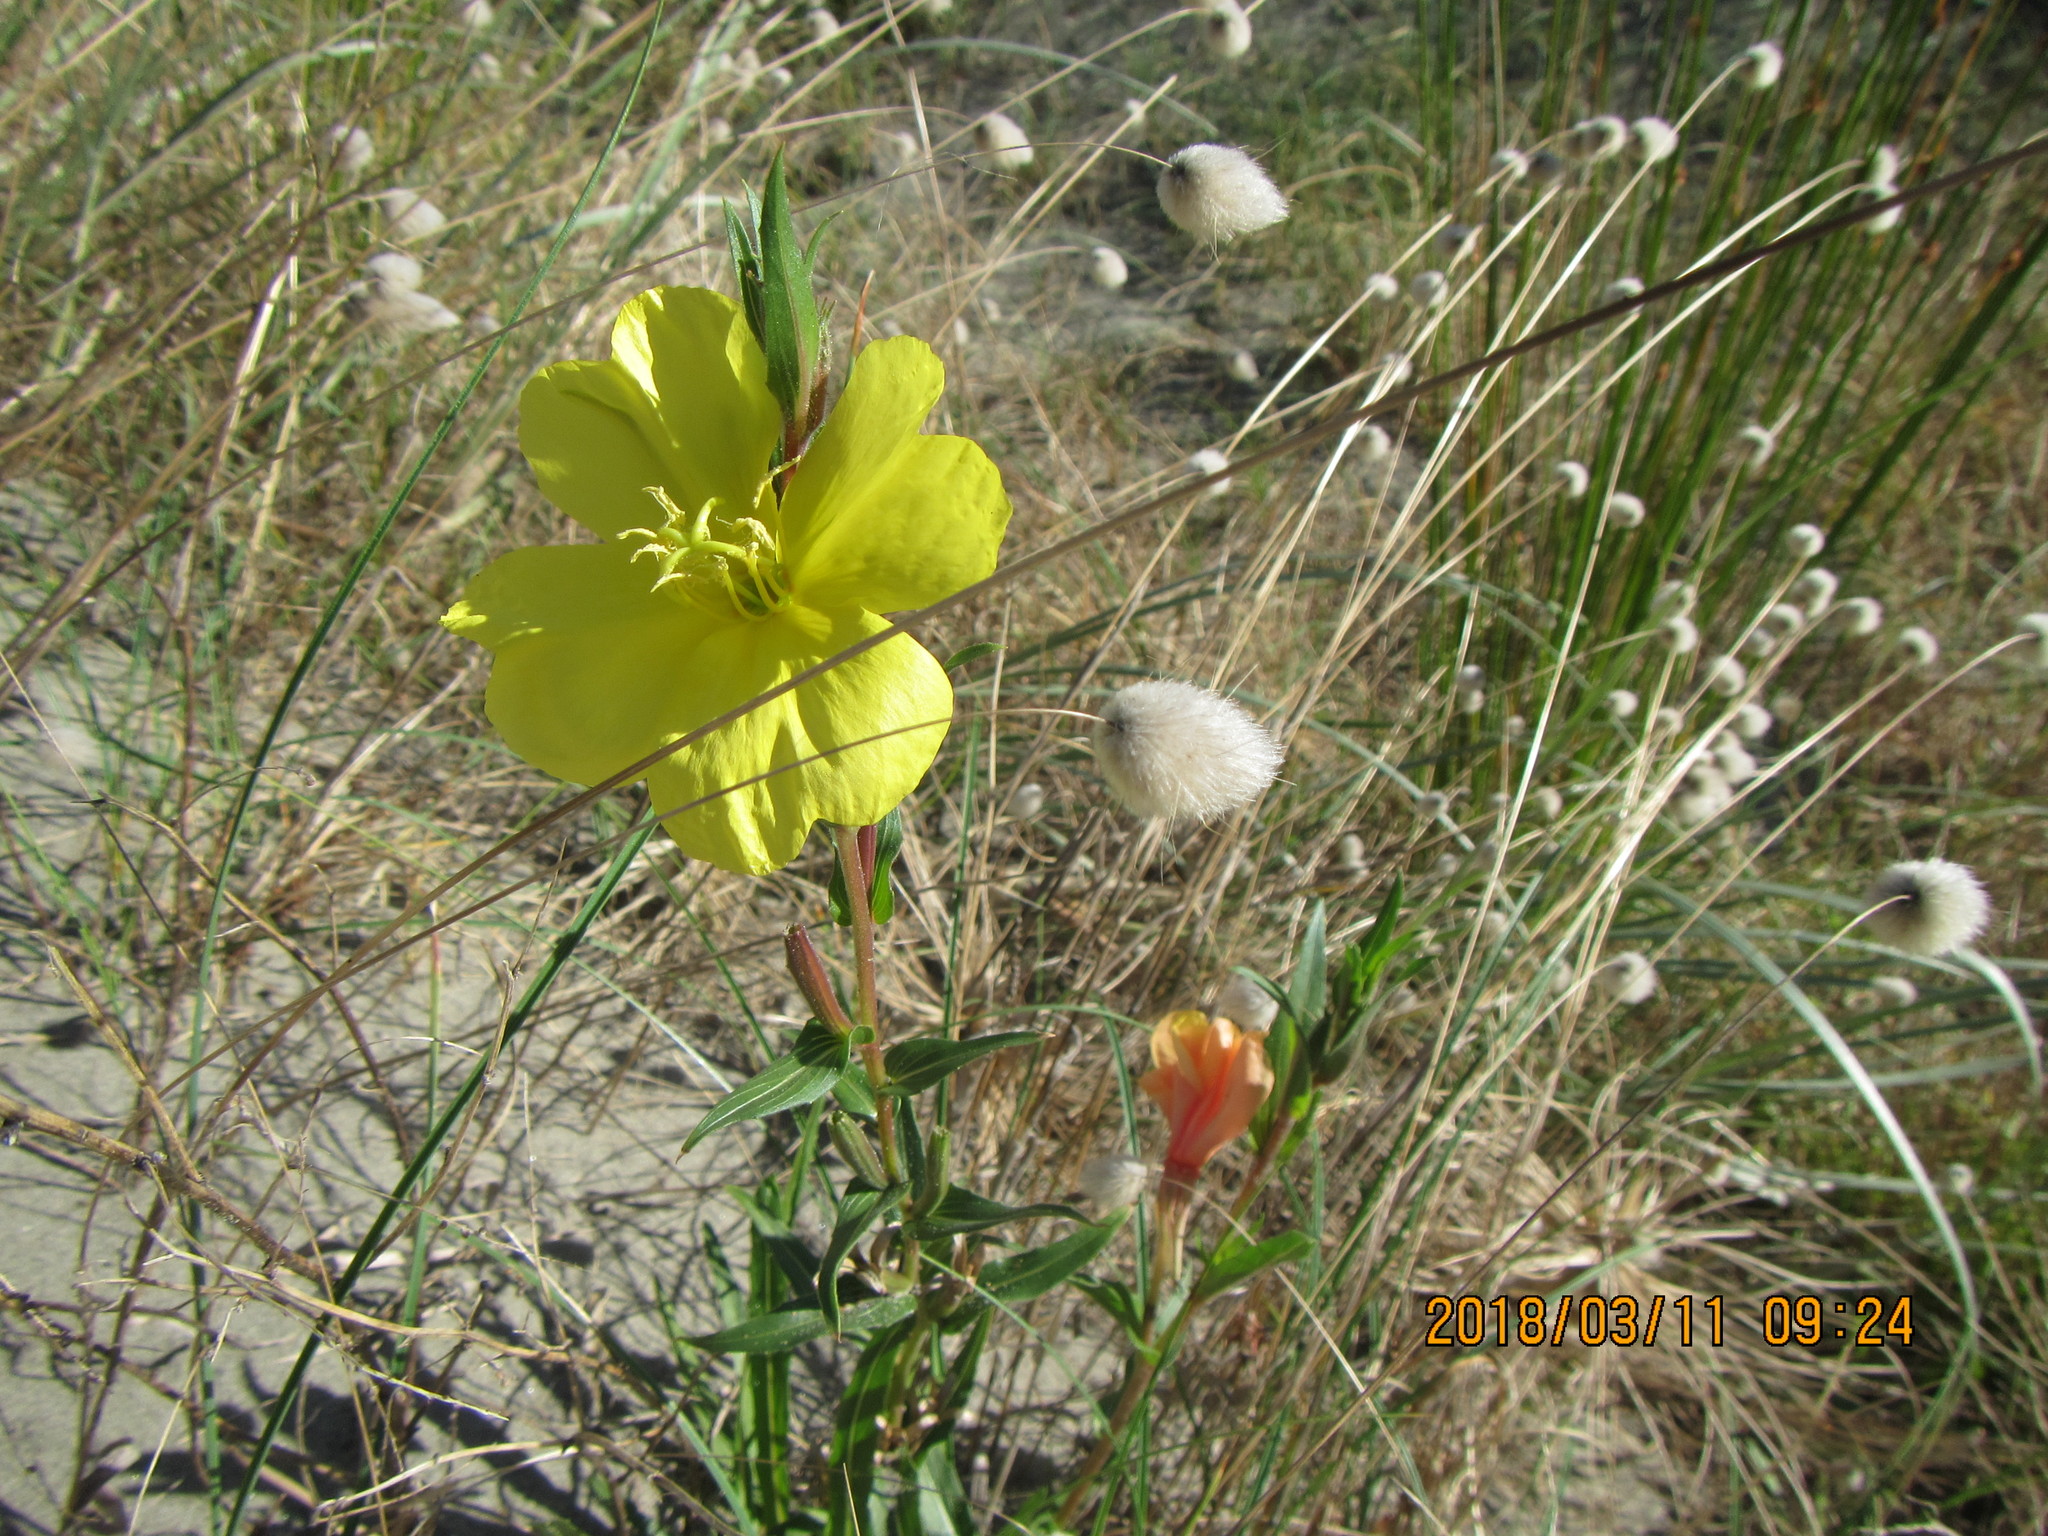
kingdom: Plantae
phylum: Tracheophyta
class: Magnoliopsida
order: Myrtales
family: Onagraceae
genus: Oenothera
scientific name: Oenothera drummondii
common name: Beach evening-primrose
